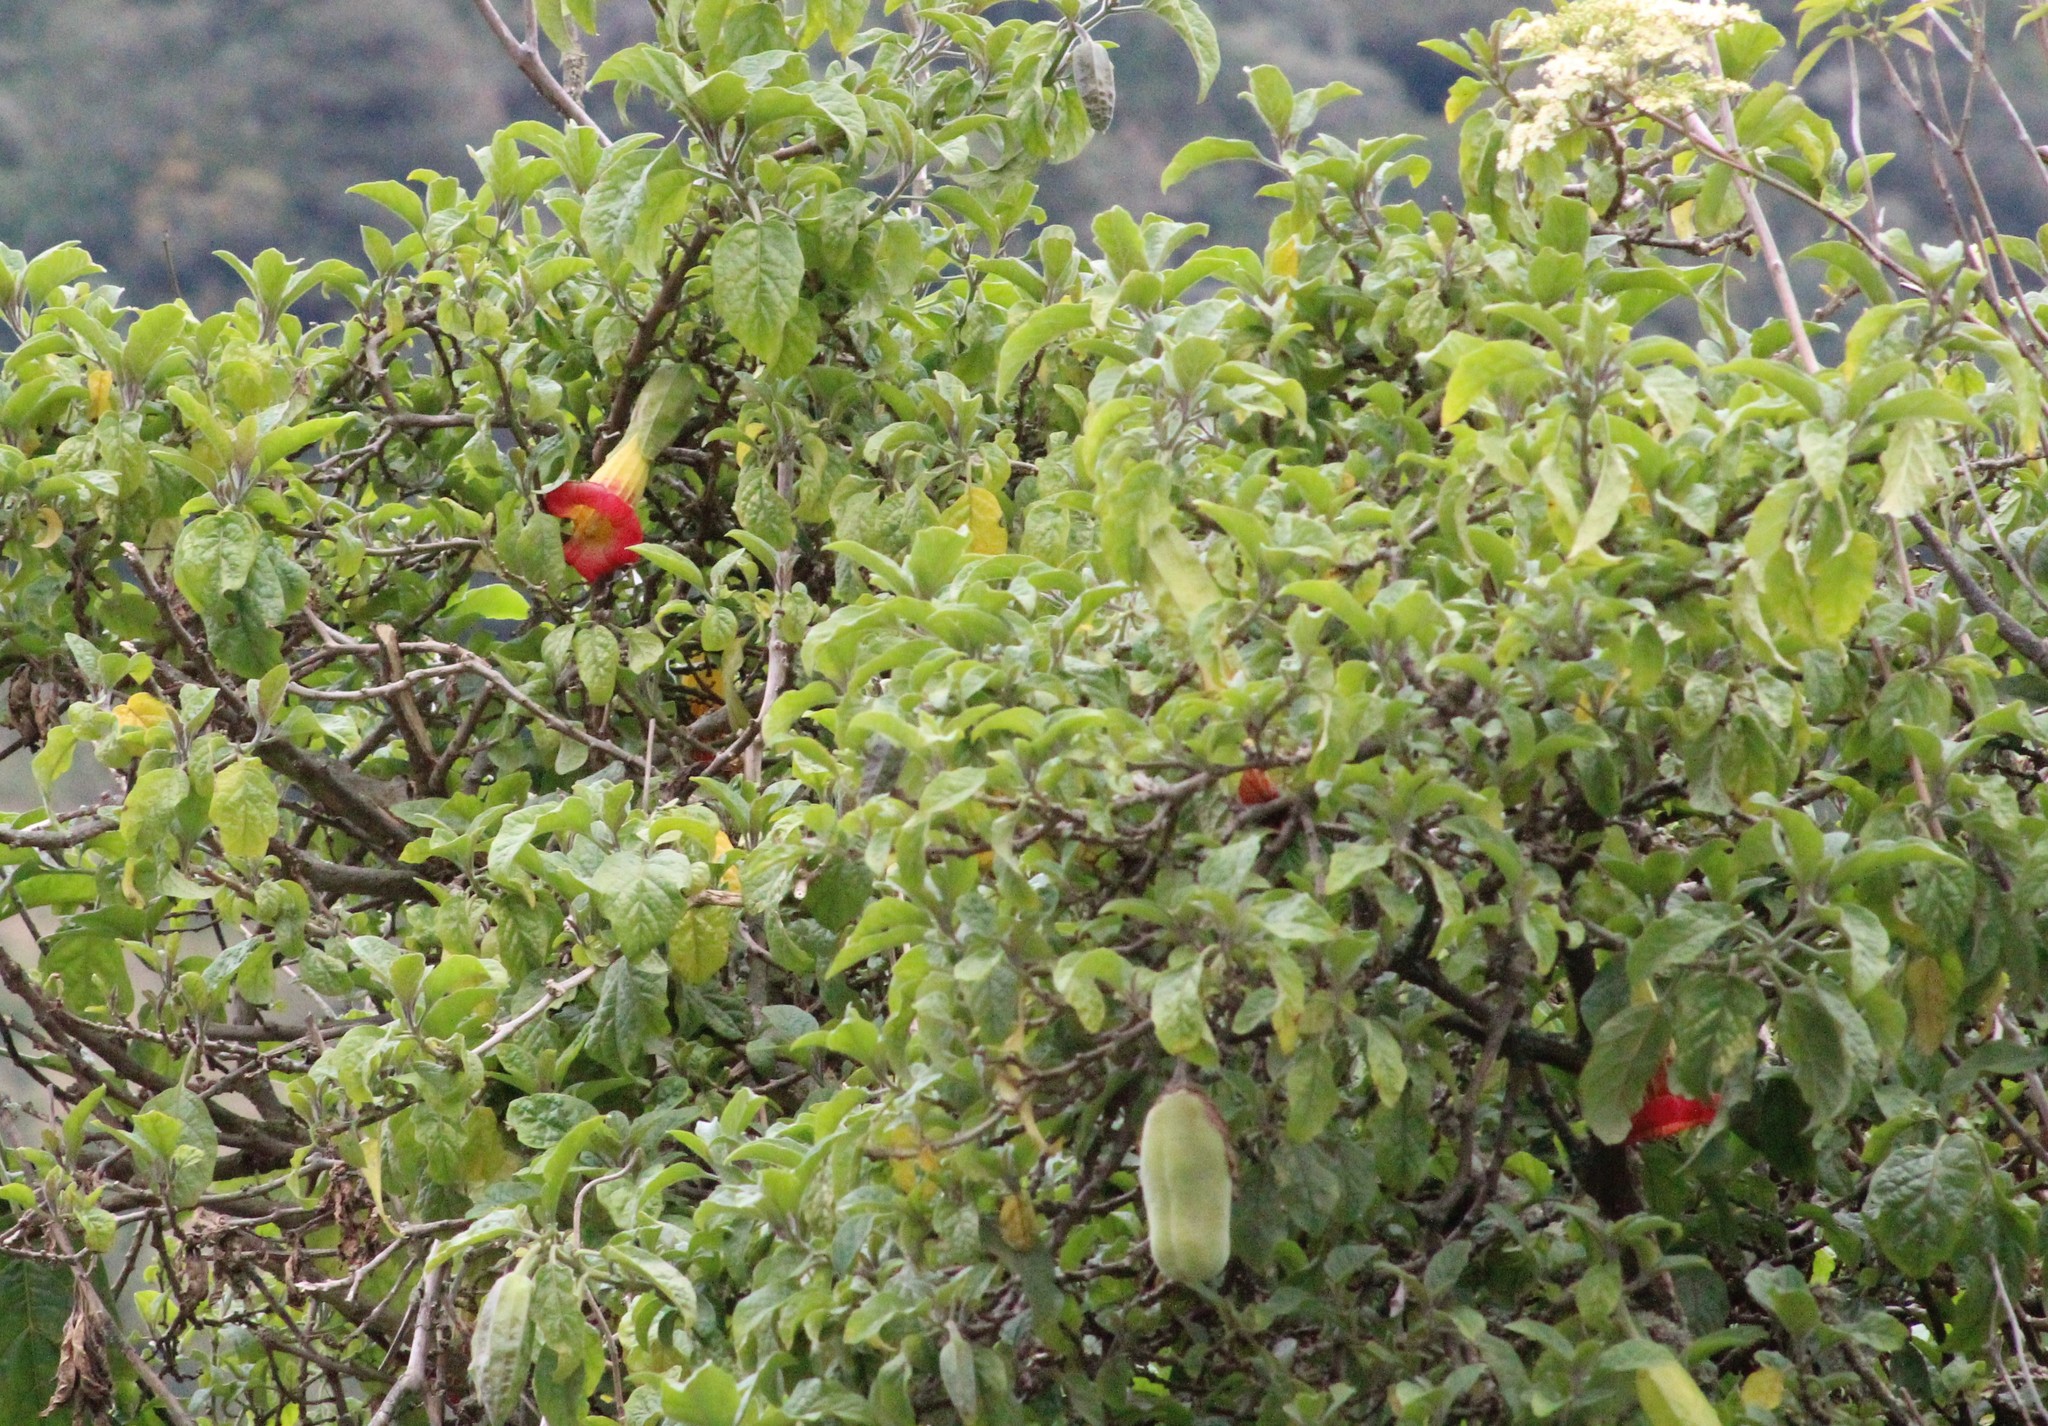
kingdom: Plantae
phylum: Tracheophyta
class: Magnoliopsida
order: Solanales
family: Solanaceae
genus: Brugmansia
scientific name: Brugmansia sanguinea
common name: Red floripontio
